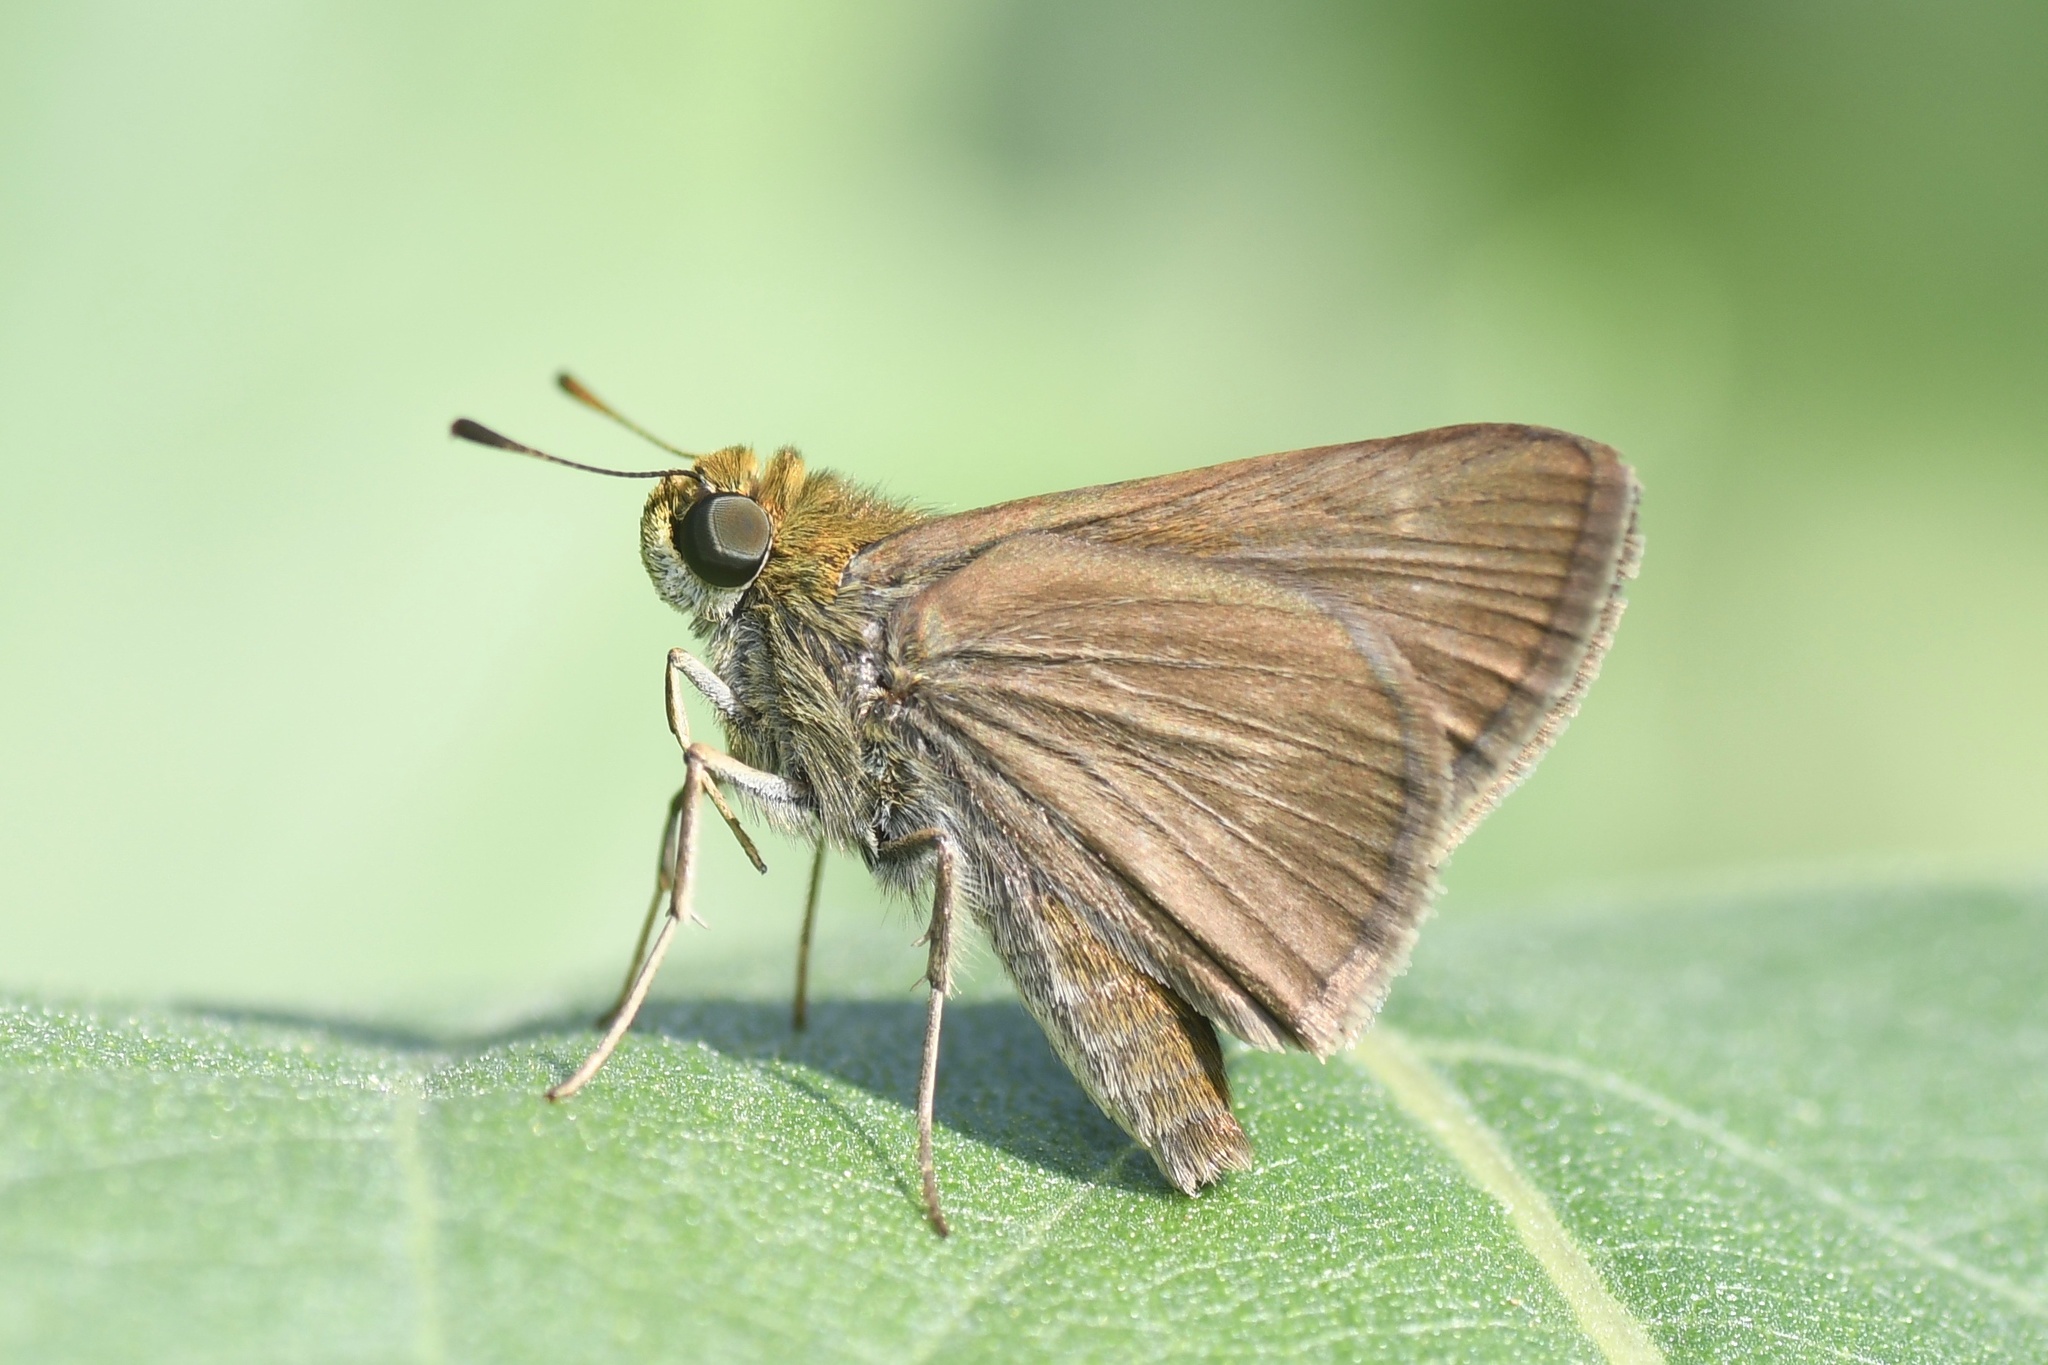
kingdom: Animalia
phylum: Arthropoda
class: Insecta
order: Lepidoptera
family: Hesperiidae
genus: Polites
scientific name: Polites origenes
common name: Crossline skipper
